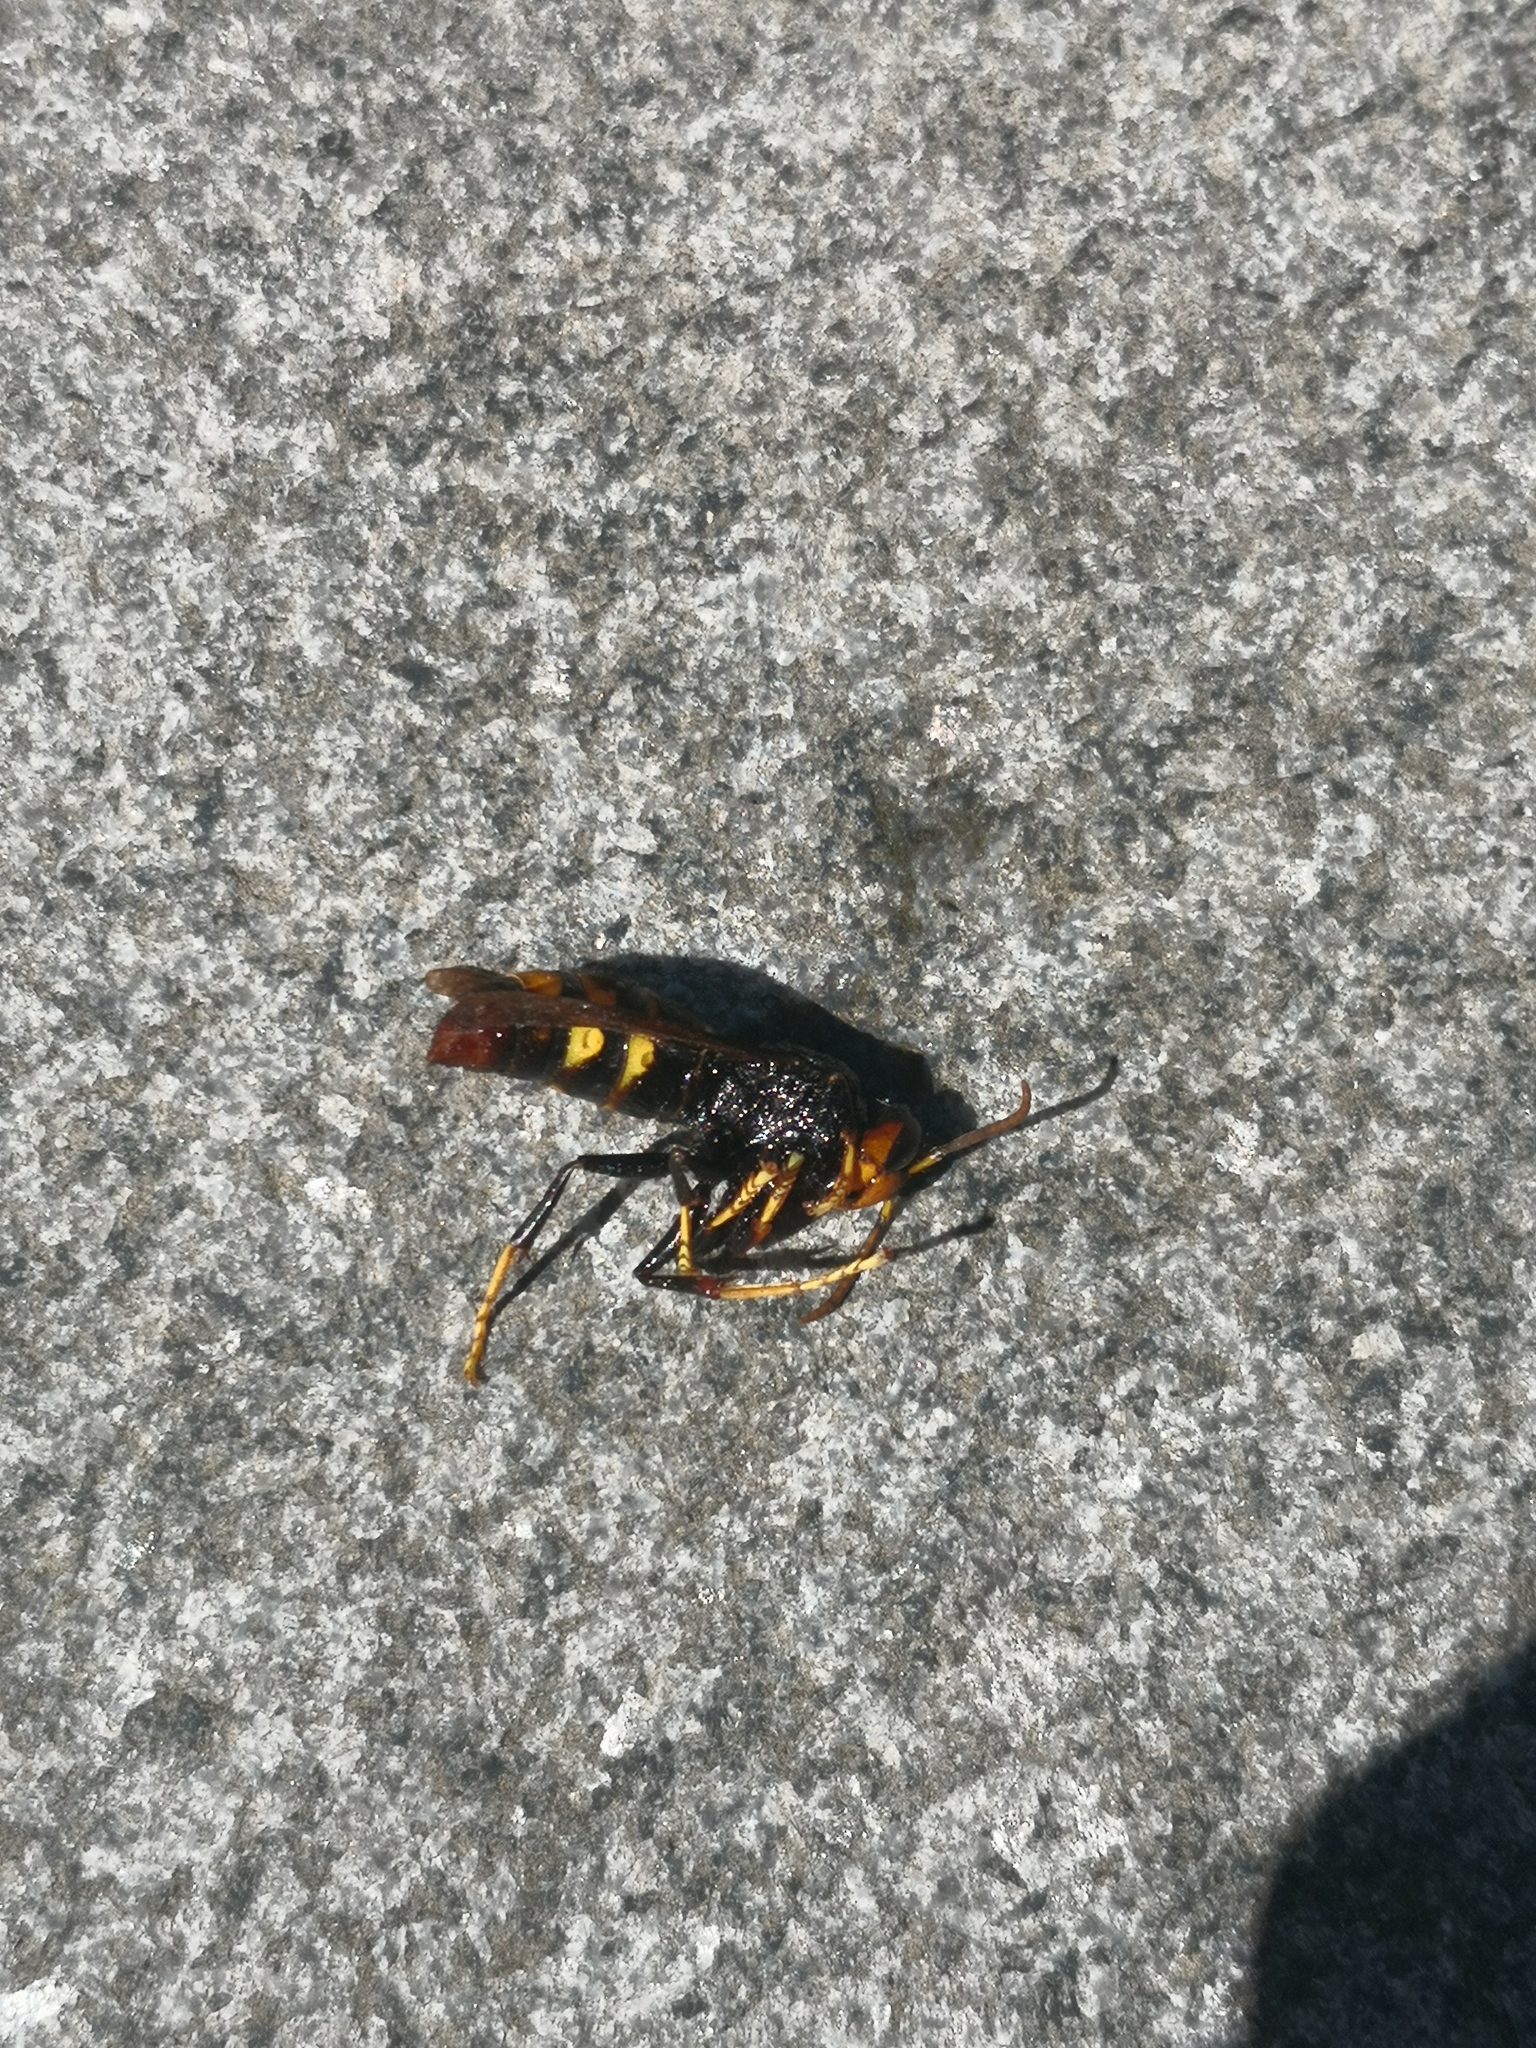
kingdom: Animalia
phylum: Arthropoda
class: Insecta
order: Hymenoptera
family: Vespidae
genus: Vespa
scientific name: Vespa velutina
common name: Asian hornet
